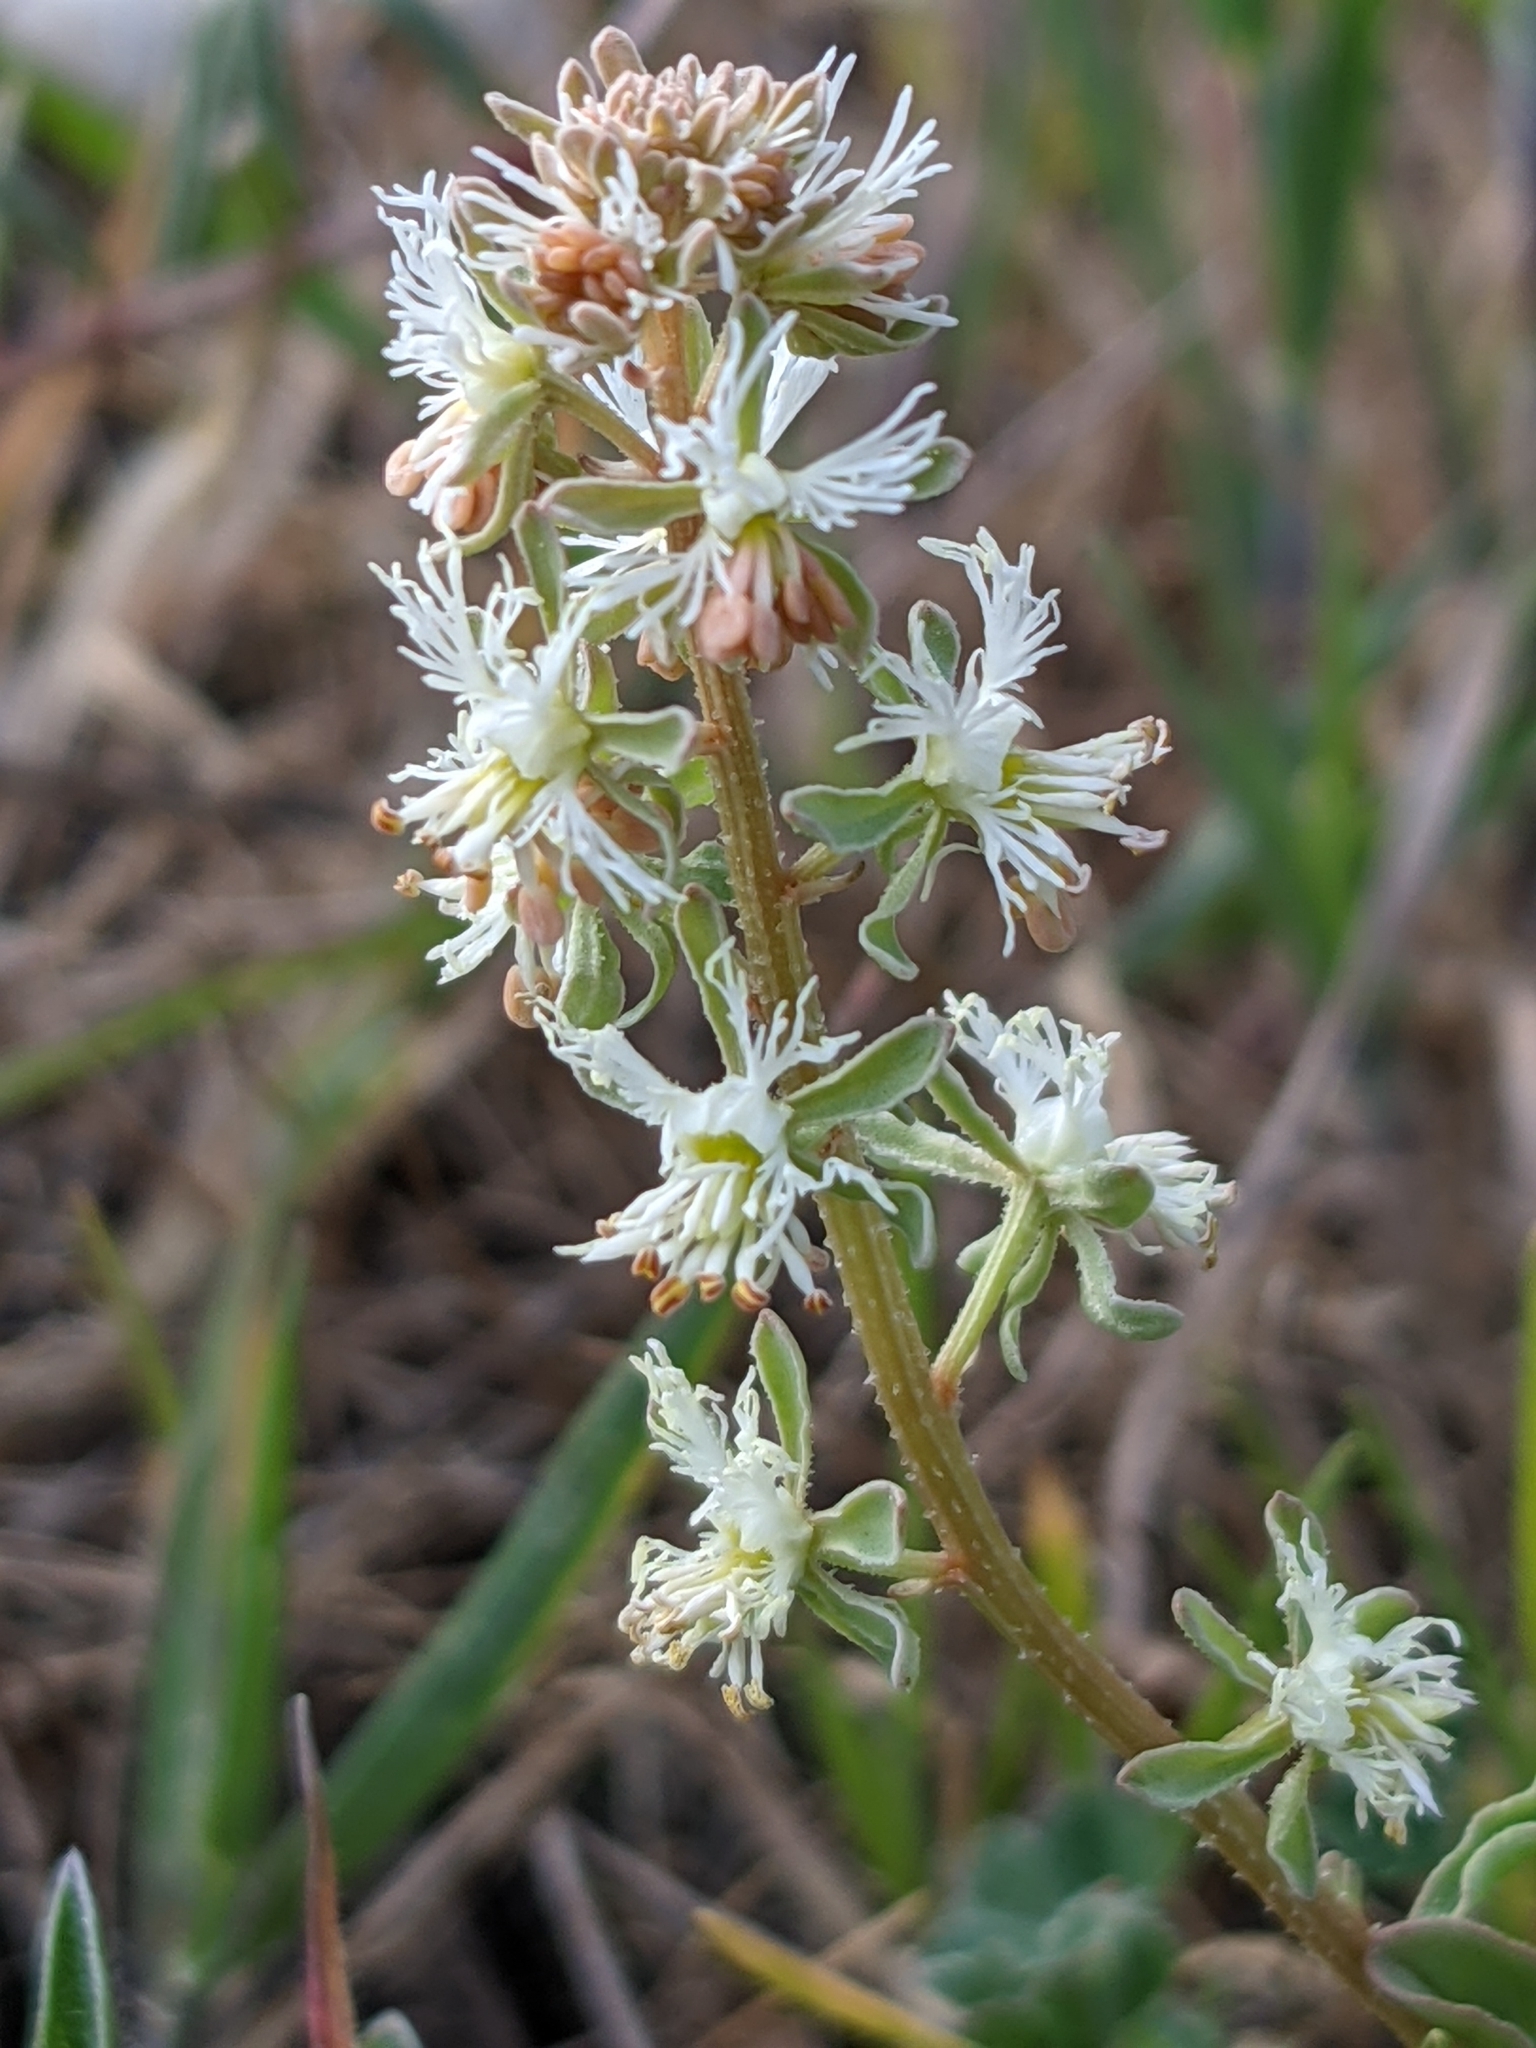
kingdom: Plantae
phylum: Tracheophyta
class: Magnoliopsida
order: Brassicales
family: Resedaceae
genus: Reseda
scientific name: Reseda phyteuma
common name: Corn mignonette
